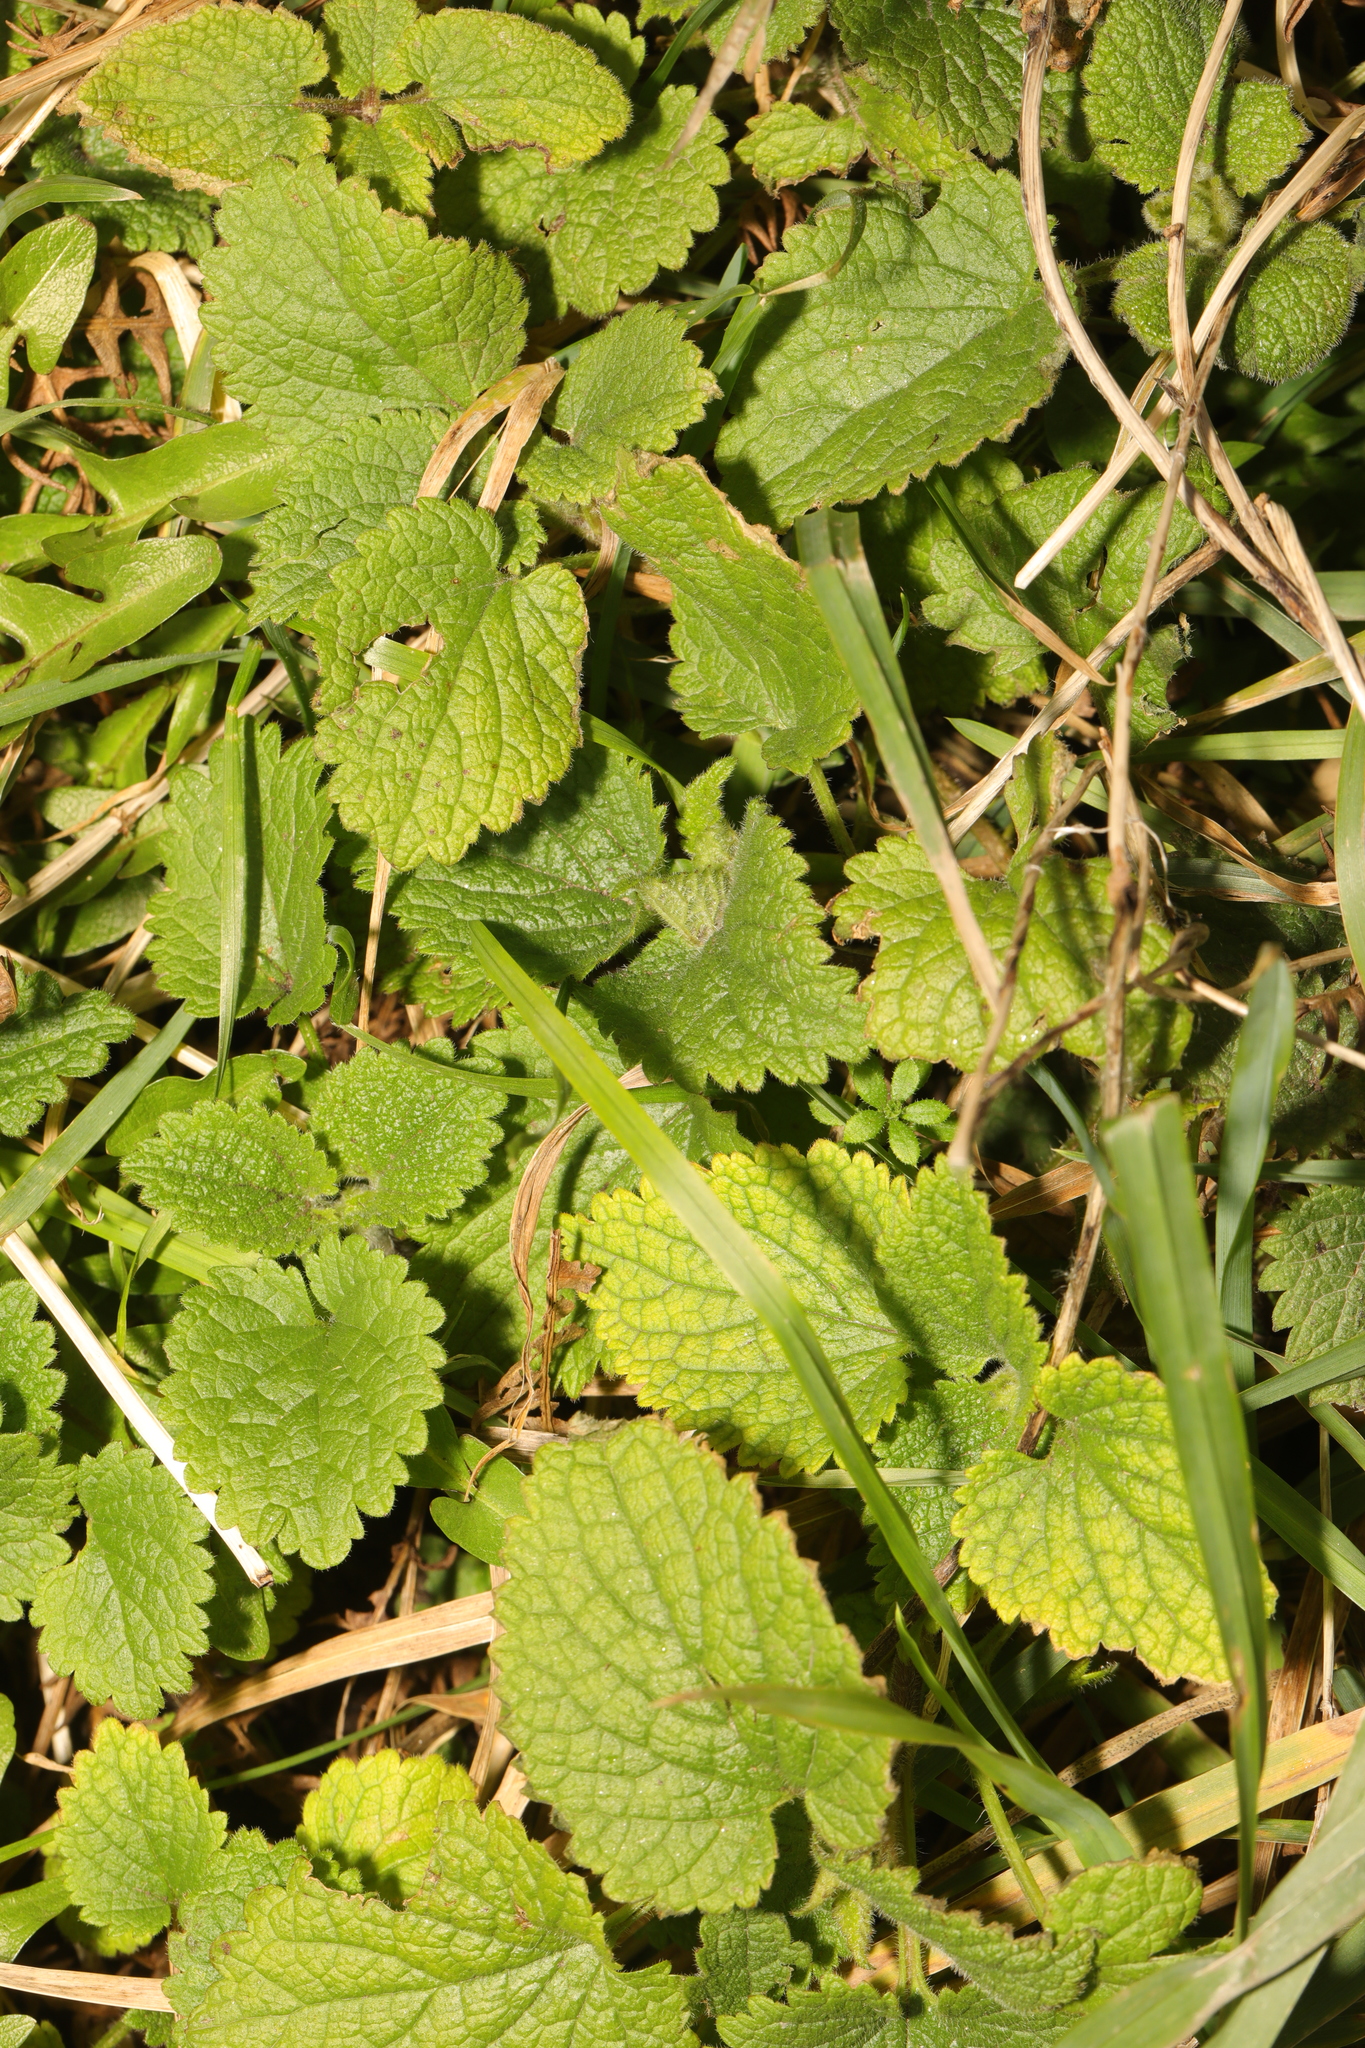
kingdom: Plantae
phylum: Tracheophyta
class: Magnoliopsida
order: Lamiales
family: Lamiaceae
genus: Lamium
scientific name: Lamium album
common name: White dead-nettle
